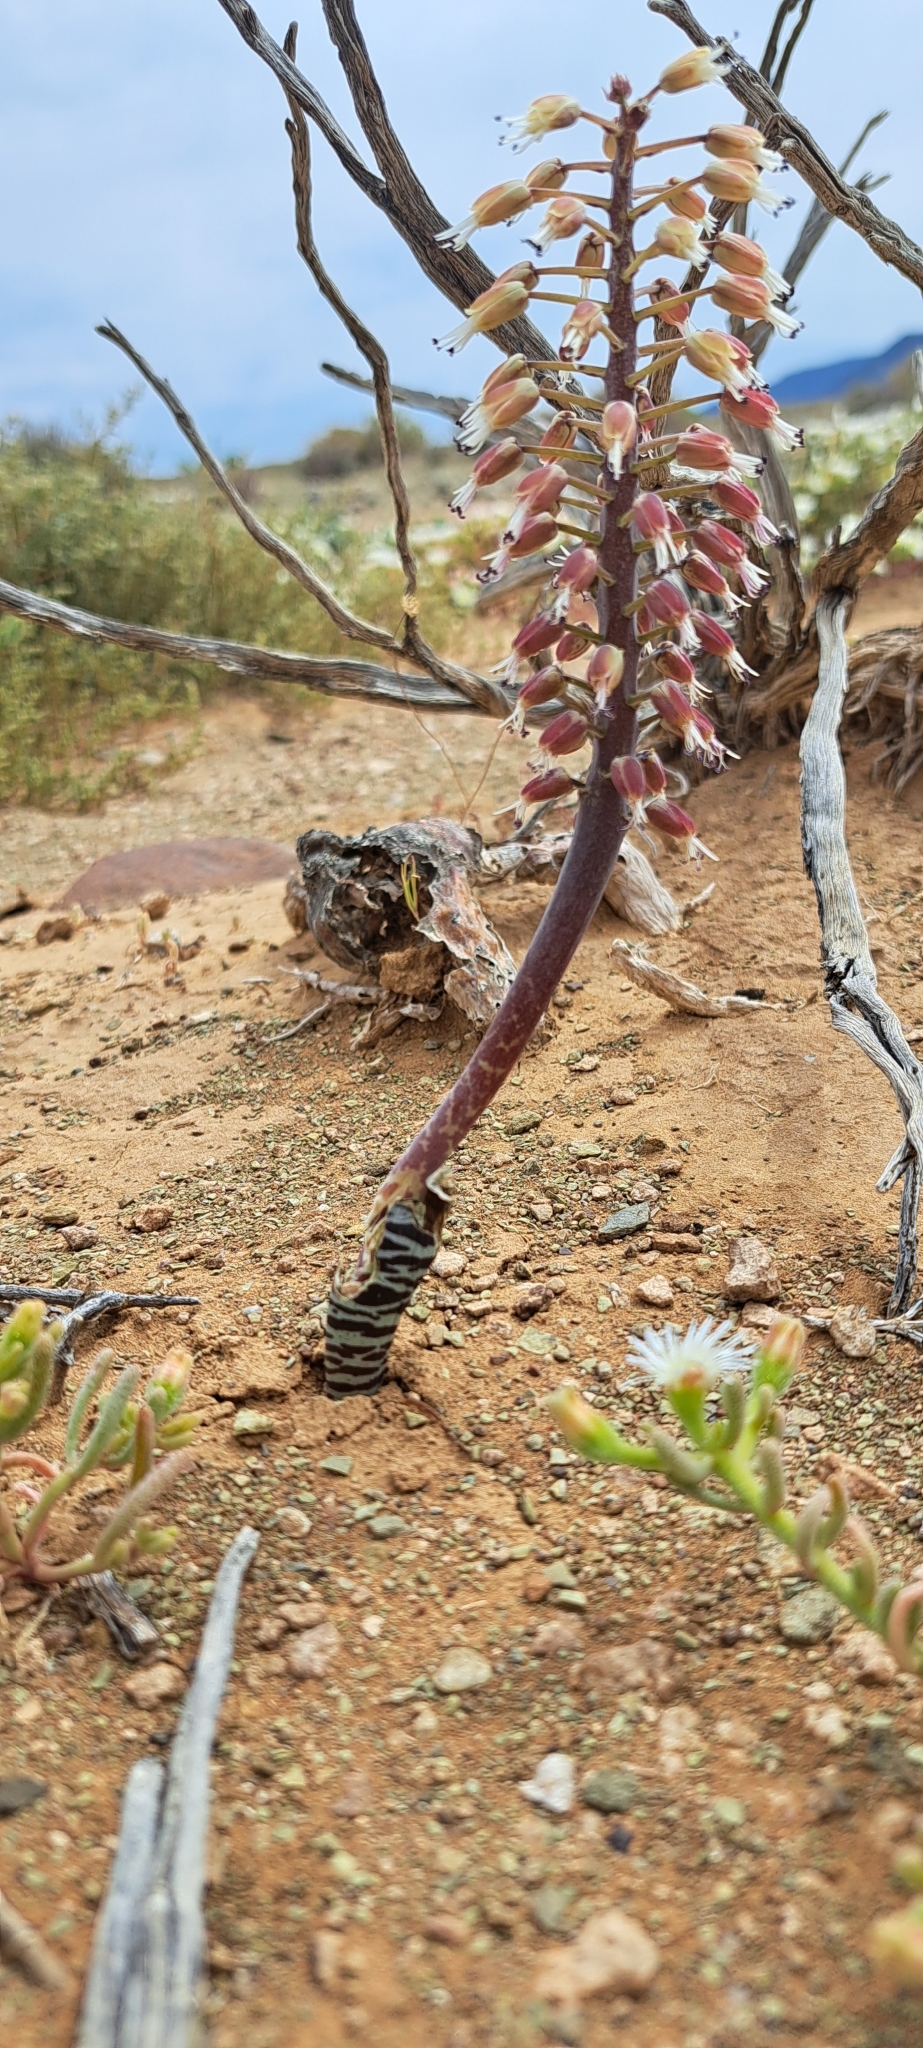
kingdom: Plantae
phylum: Tracheophyta
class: Liliopsida
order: Asparagales
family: Asparagaceae
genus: Lachenalia
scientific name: Lachenalia zebrina
